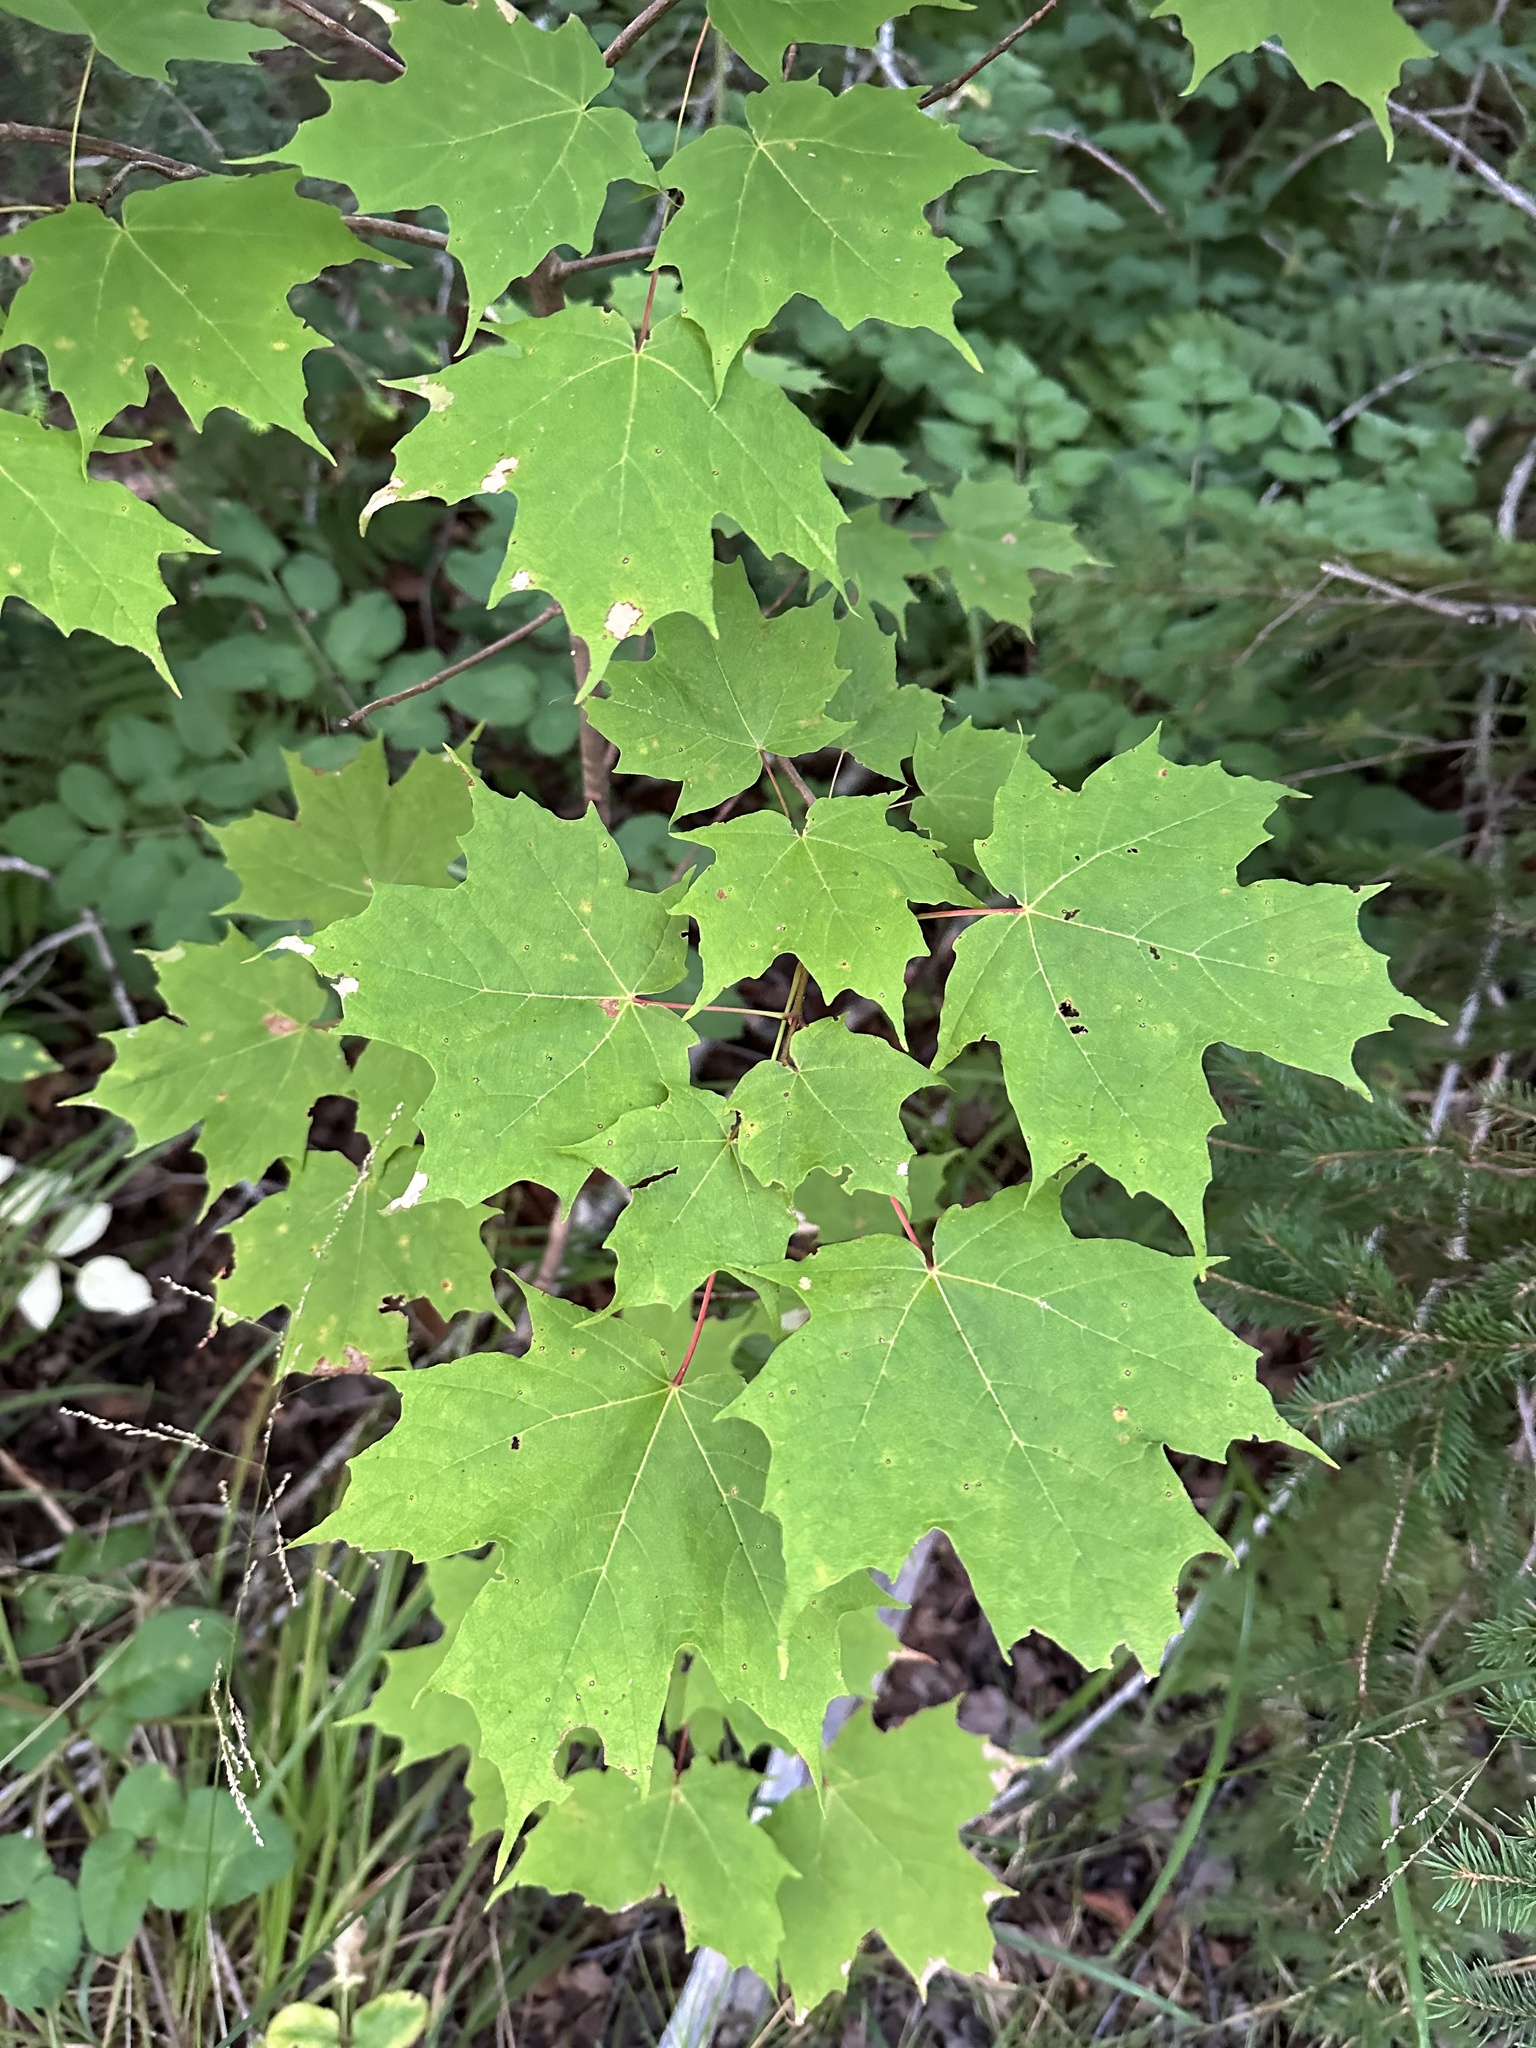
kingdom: Plantae
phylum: Tracheophyta
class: Magnoliopsida
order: Sapindales
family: Sapindaceae
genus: Acer
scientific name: Acer saccharum
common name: Sugar maple
